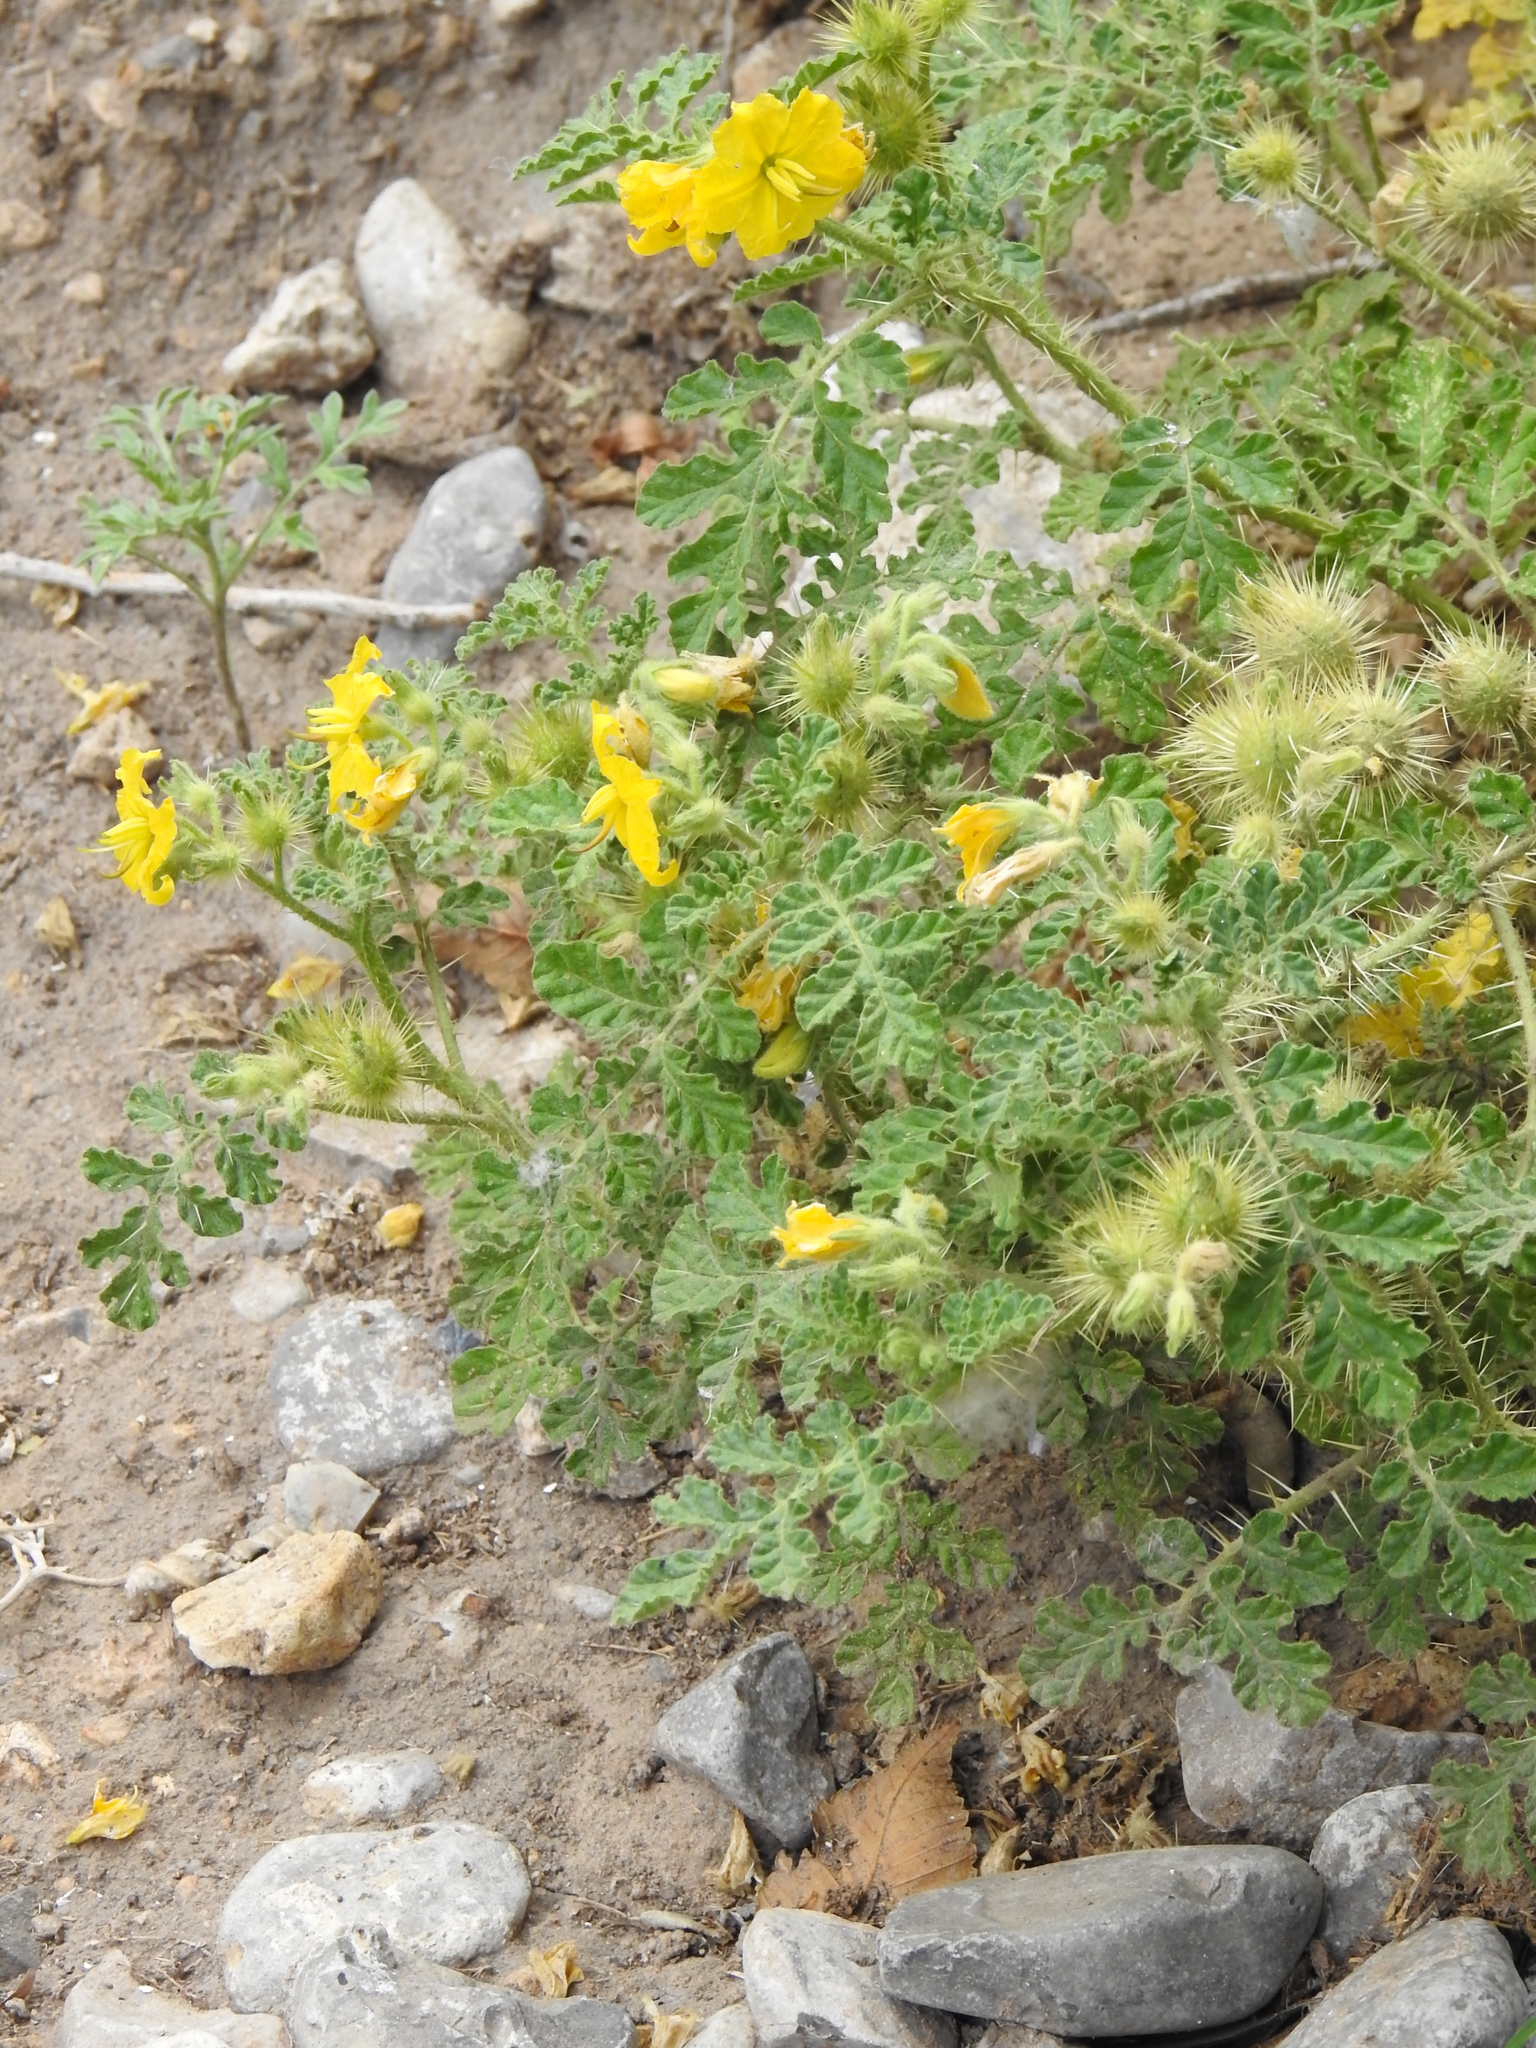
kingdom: Plantae
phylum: Tracheophyta
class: Magnoliopsida
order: Solanales
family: Solanaceae
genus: Solanum
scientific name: Solanum angustifolium
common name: Buffalobur nightshade
